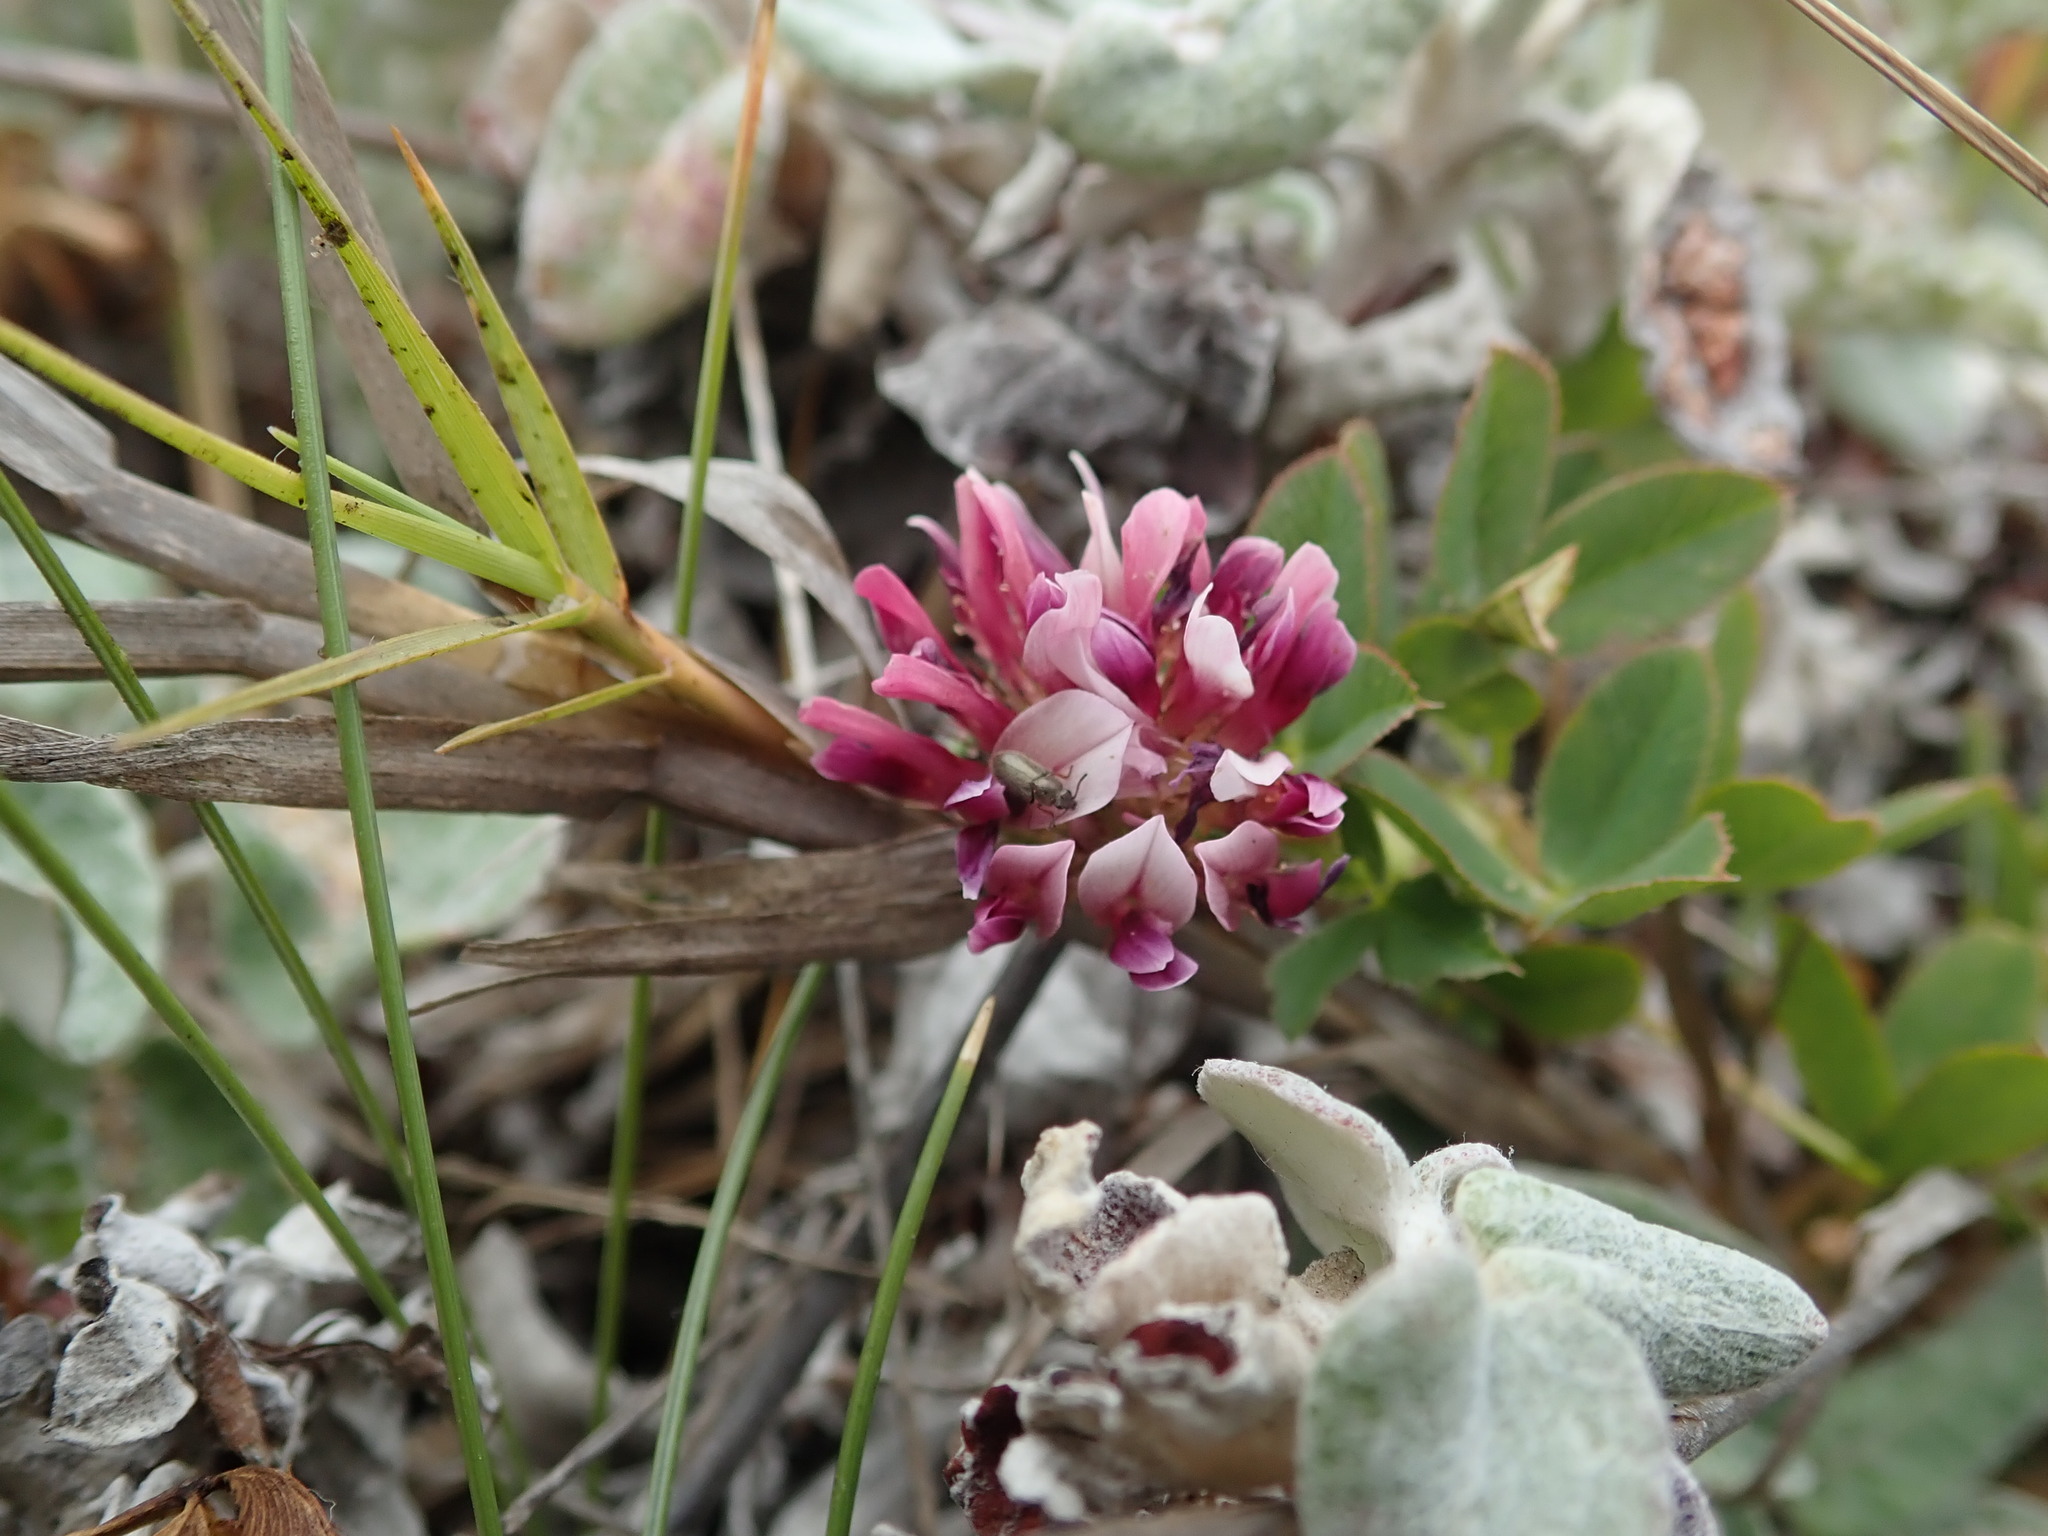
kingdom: Plantae
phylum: Tracheophyta
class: Magnoliopsida
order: Fabales
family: Fabaceae
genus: Trifolium
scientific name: Trifolium wormskioldii
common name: Springbank clover
